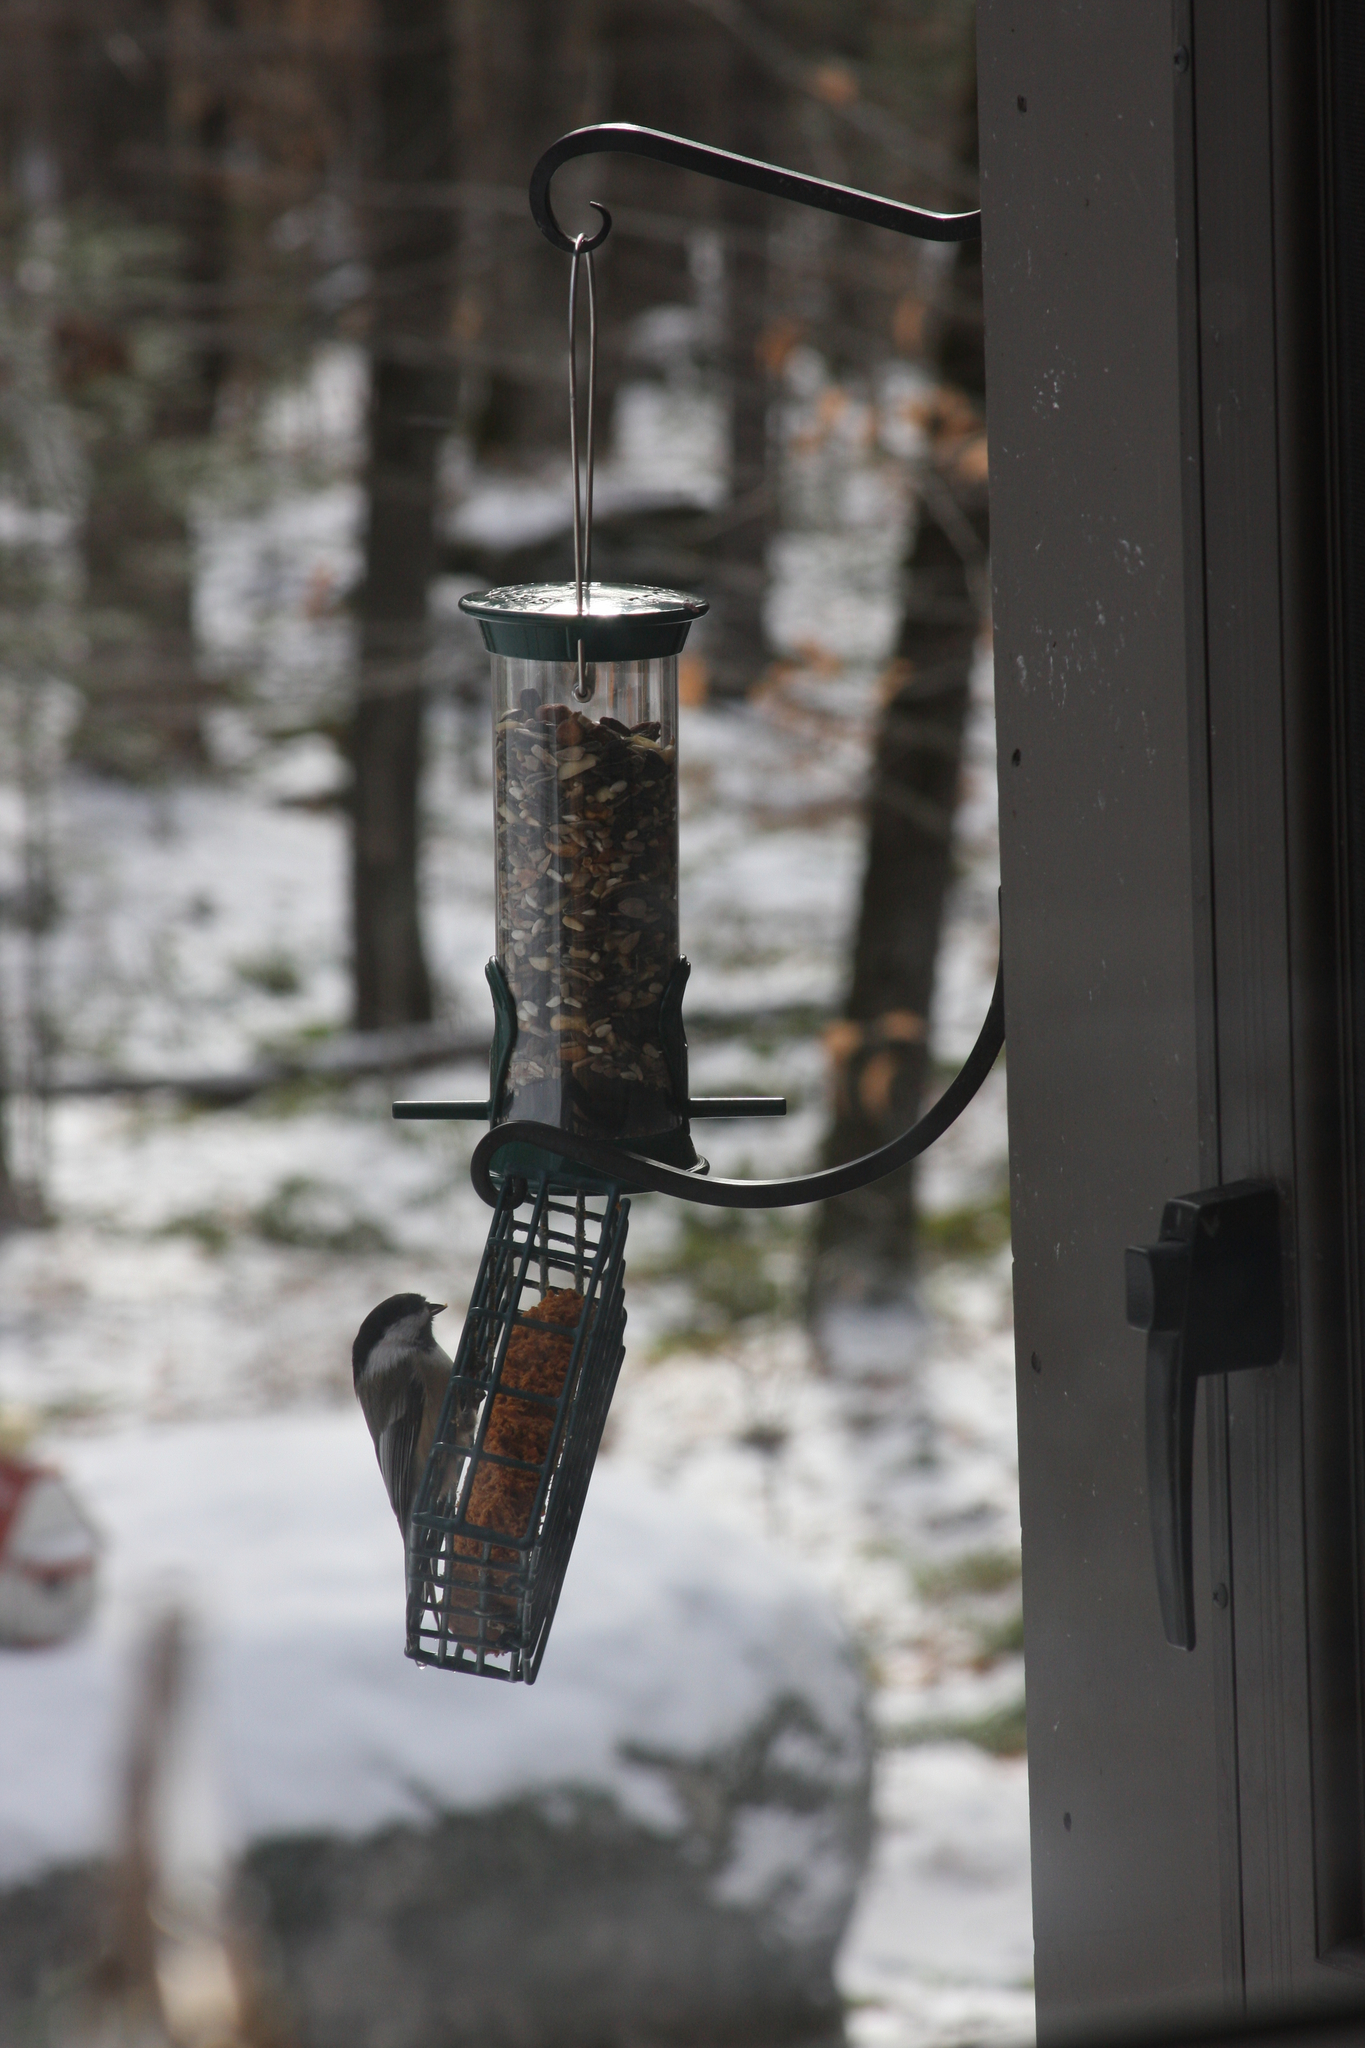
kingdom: Animalia
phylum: Chordata
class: Aves
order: Passeriformes
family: Paridae
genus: Poecile
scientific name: Poecile atricapillus
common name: Black-capped chickadee
